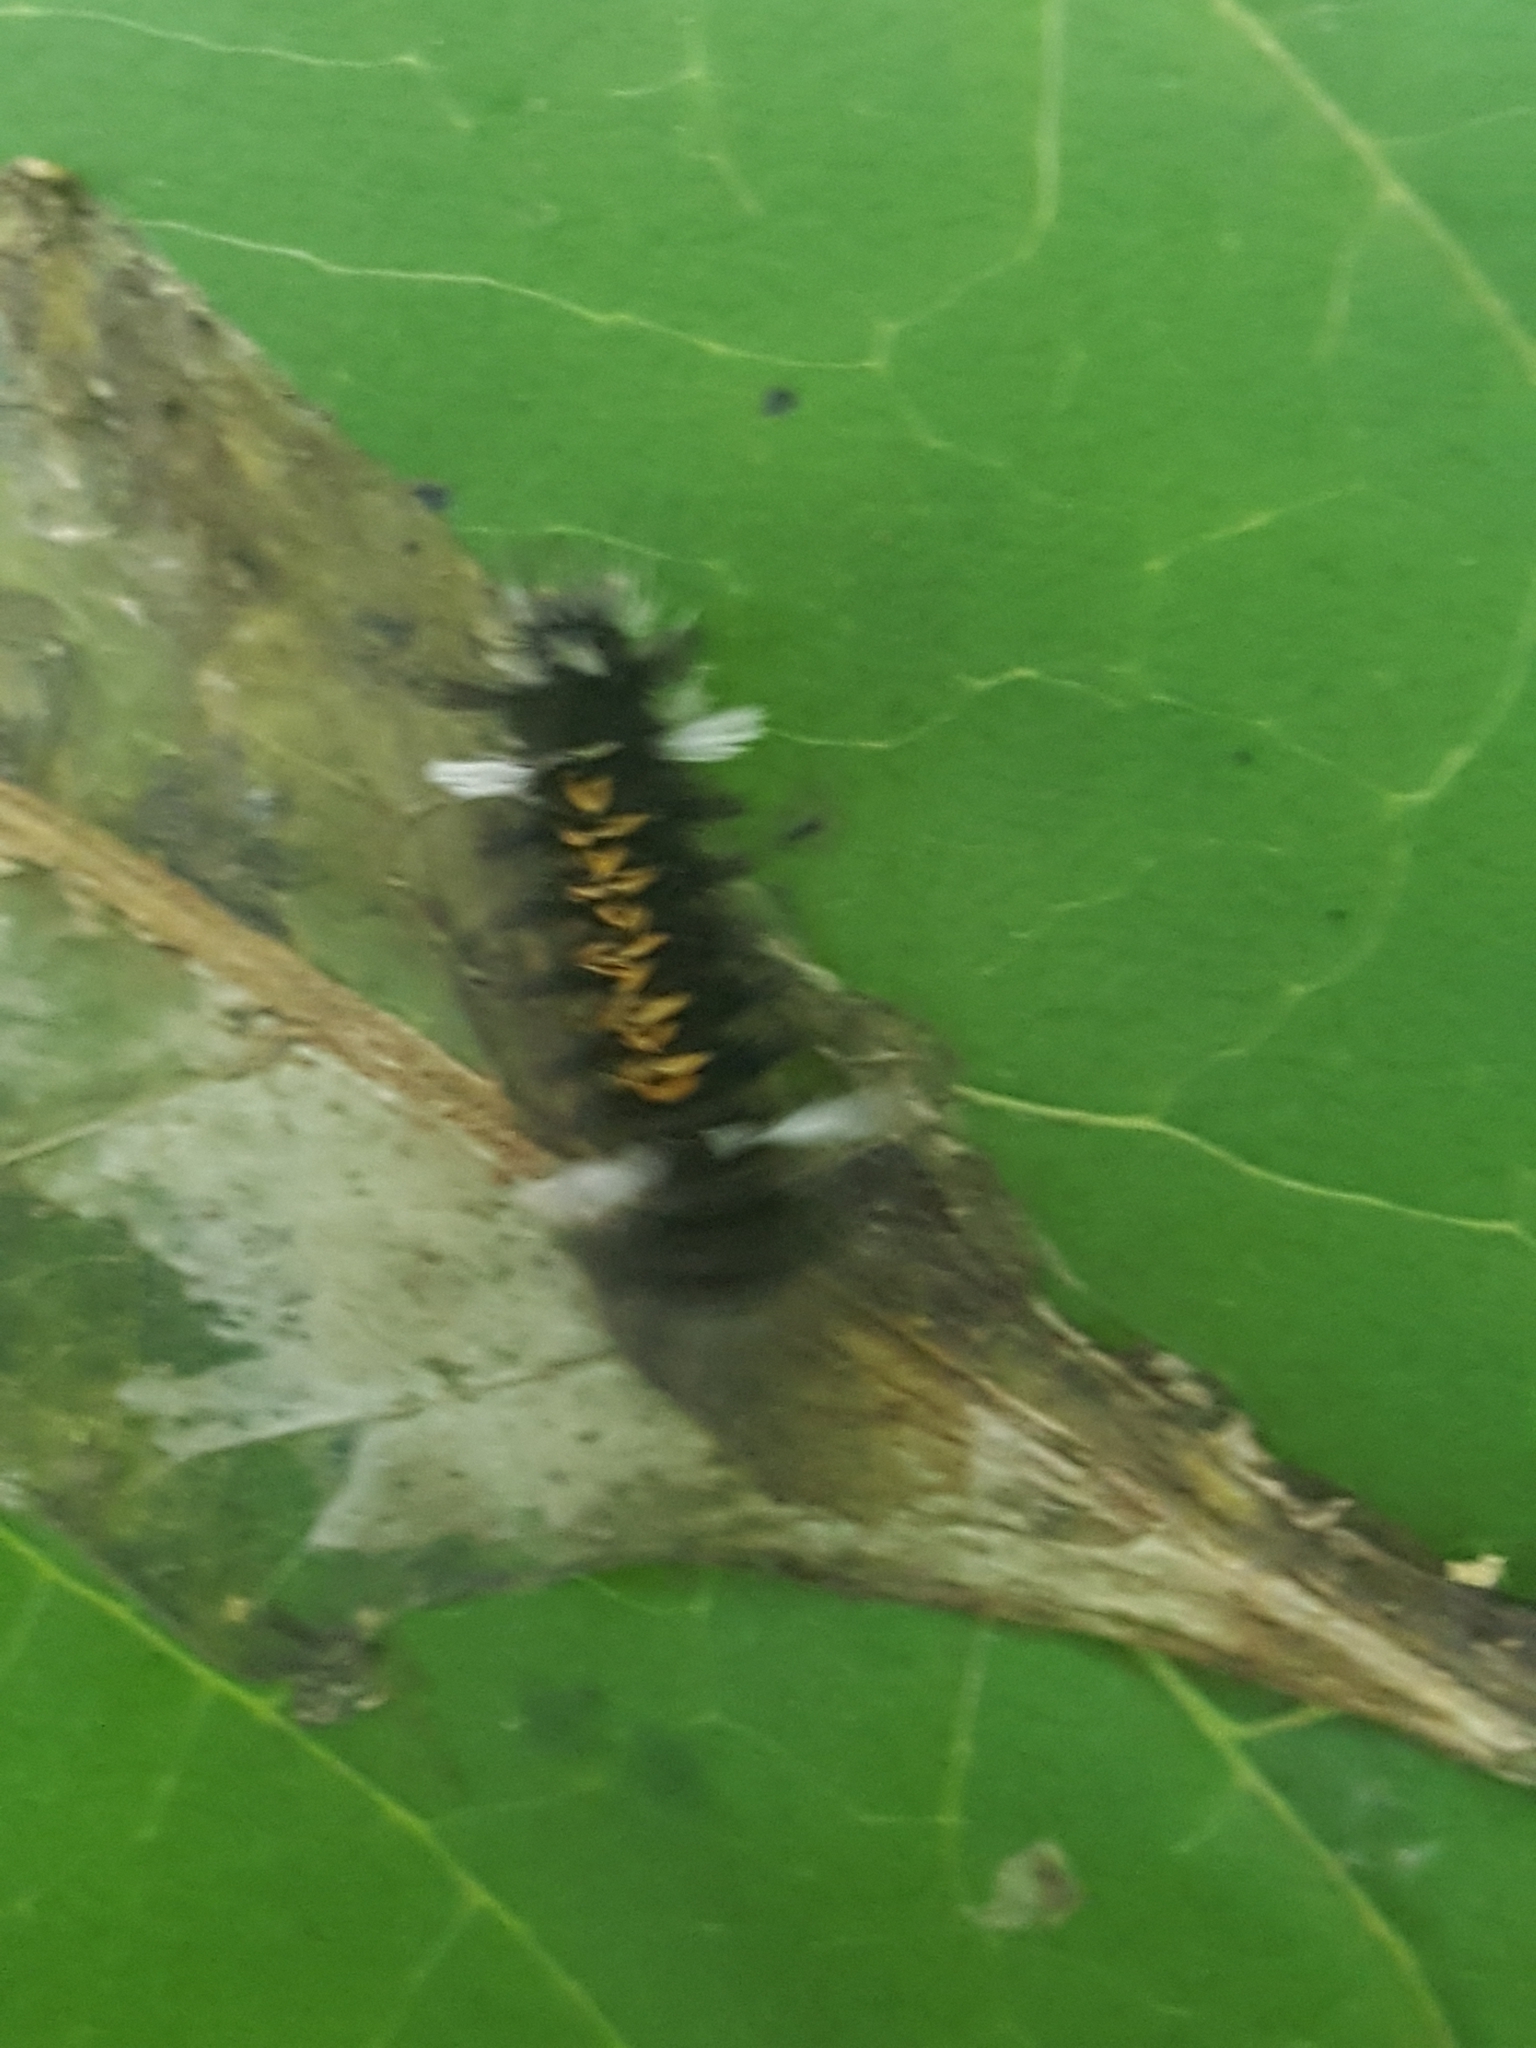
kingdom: Animalia
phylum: Arthropoda
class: Insecta
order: Lepidoptera
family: Erebidae
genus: Euchaetes
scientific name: Euchaetes egle
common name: Milkweed tussock moth
